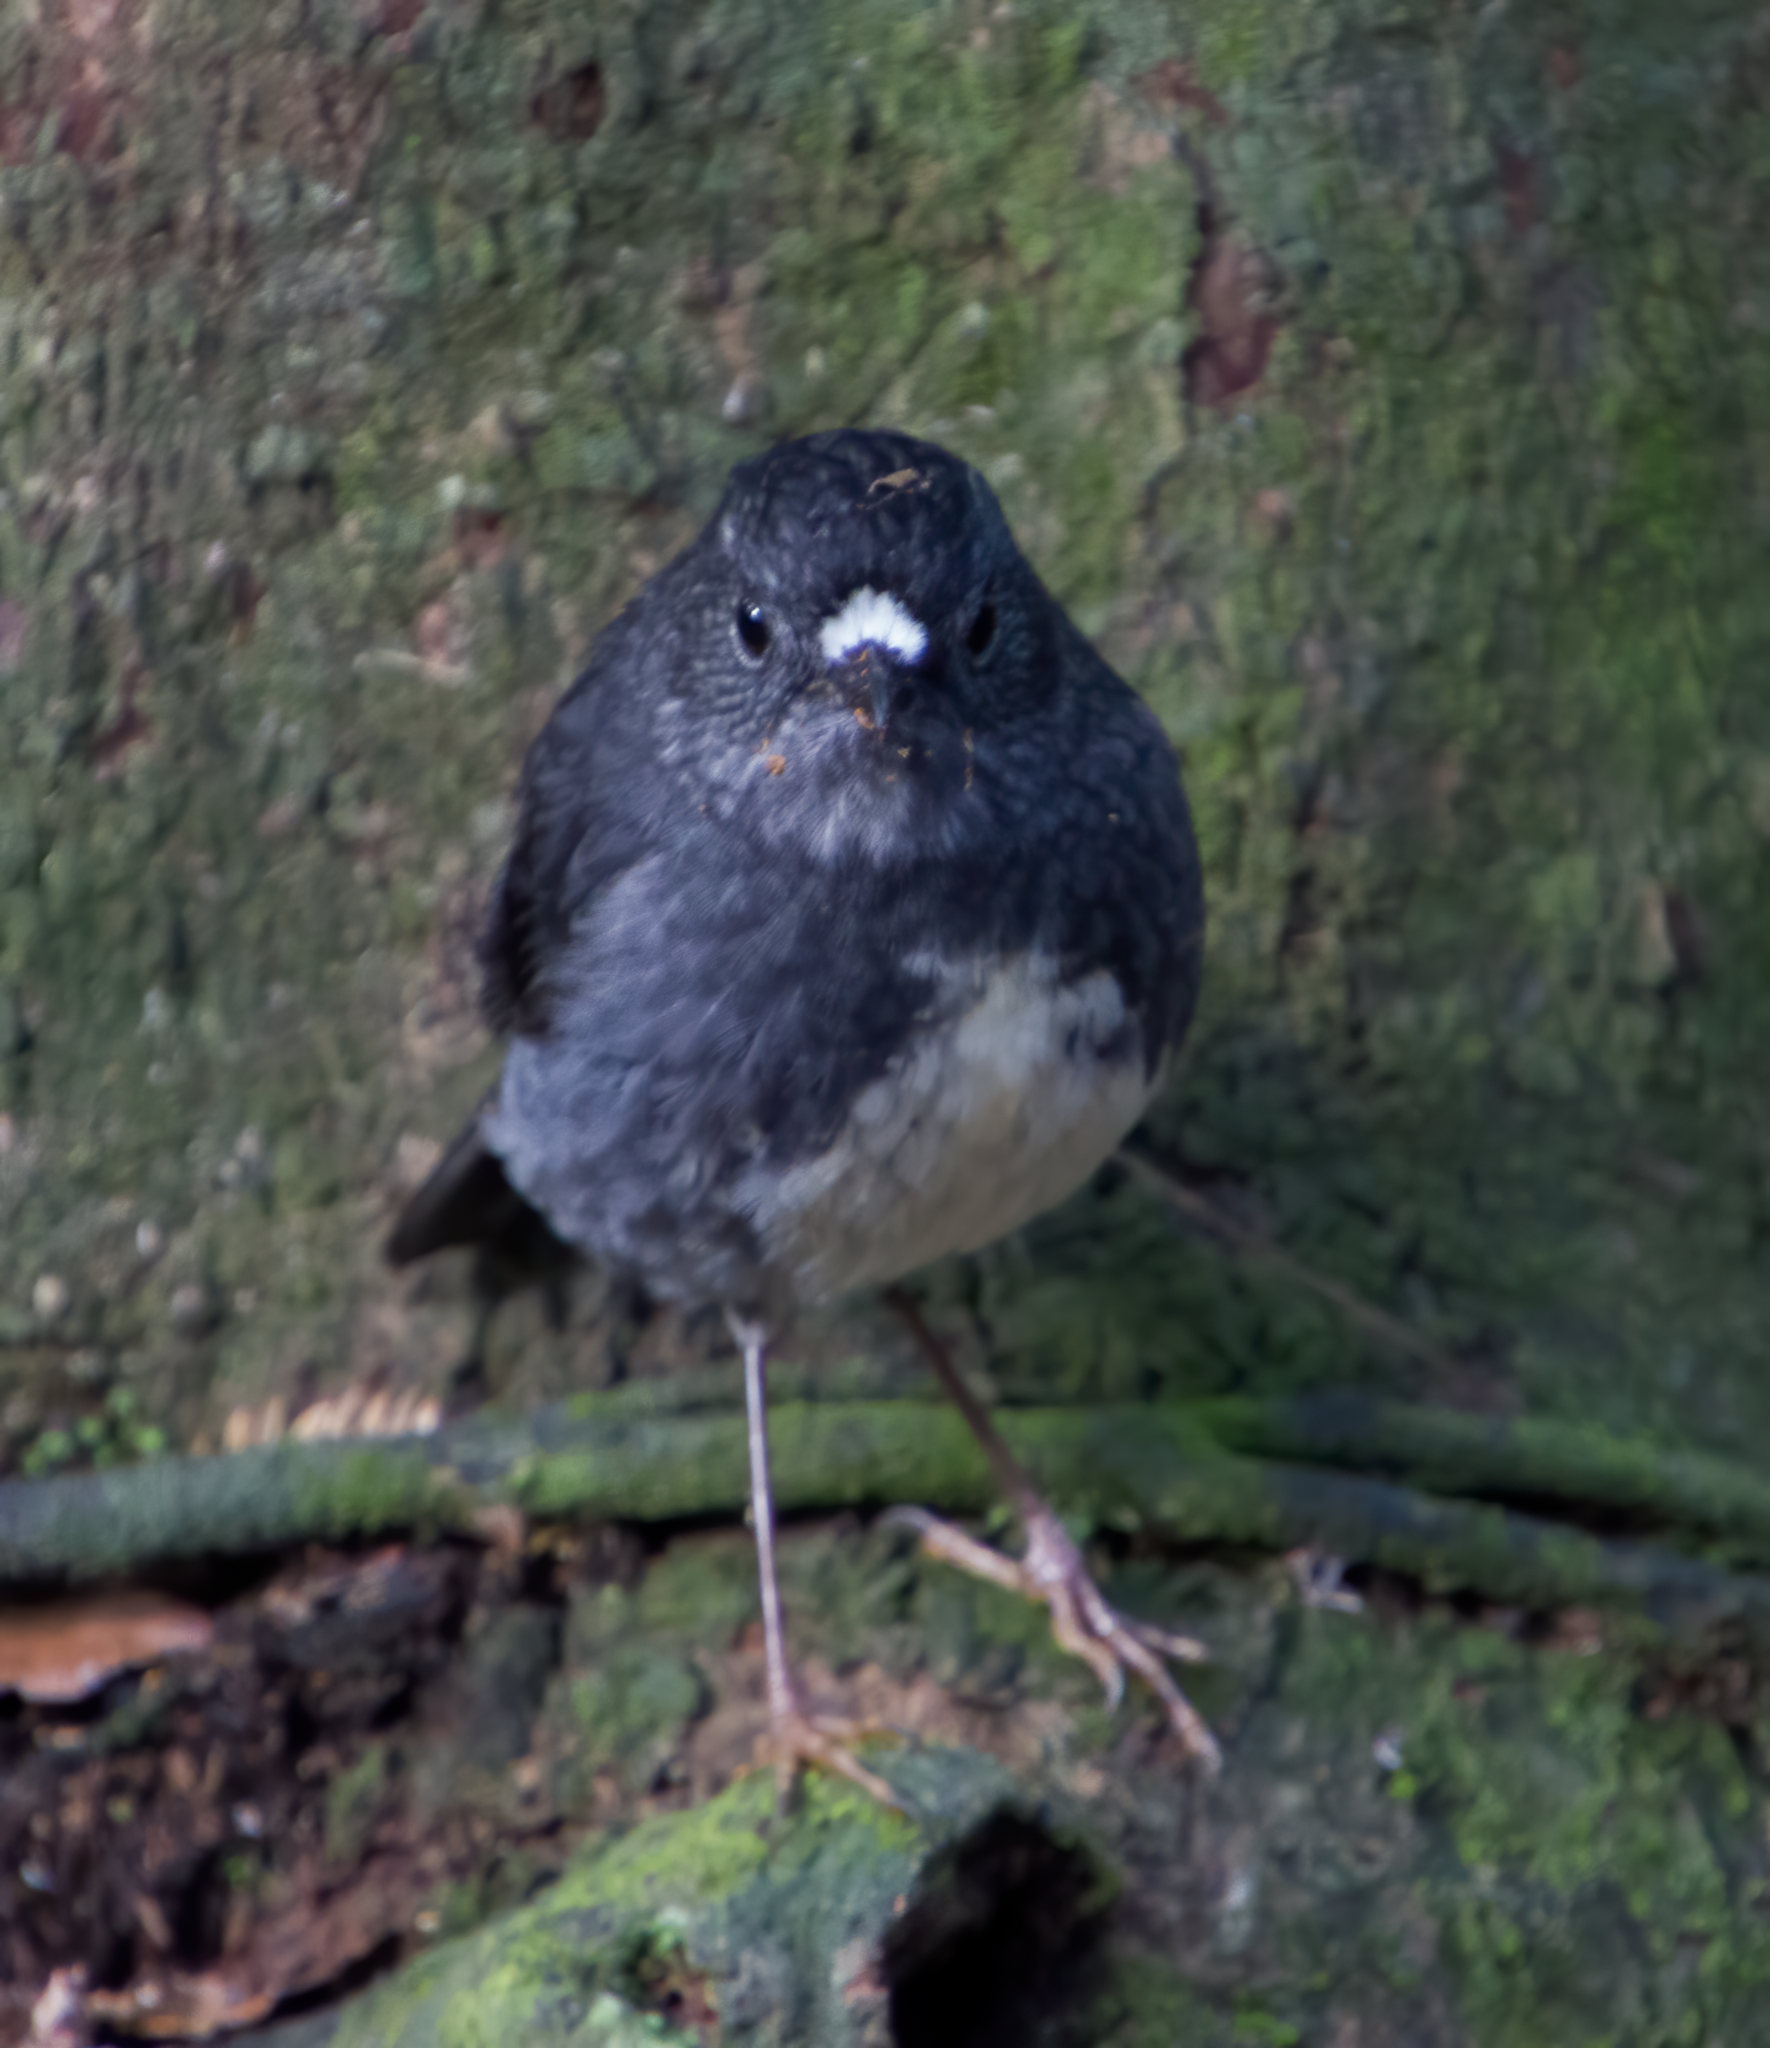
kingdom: Animalia
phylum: Chordata
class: Aves
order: Passeriformes
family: Petroicidae
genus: Petroica
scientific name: Petroica australis
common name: New zealand robin
